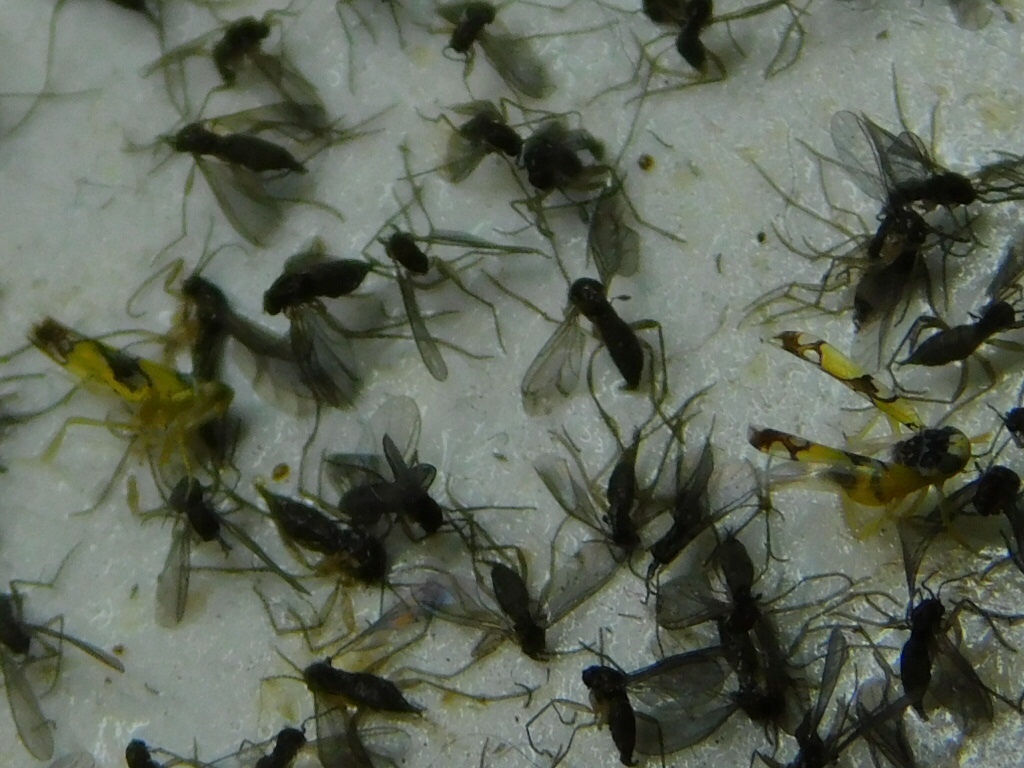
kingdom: Animalia
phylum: Arthropoda
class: Insecta
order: Hemiptera
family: Cicadellidae
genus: Protalebrella
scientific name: Protalebrella brasiliensis
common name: Brasilian leafhopper
